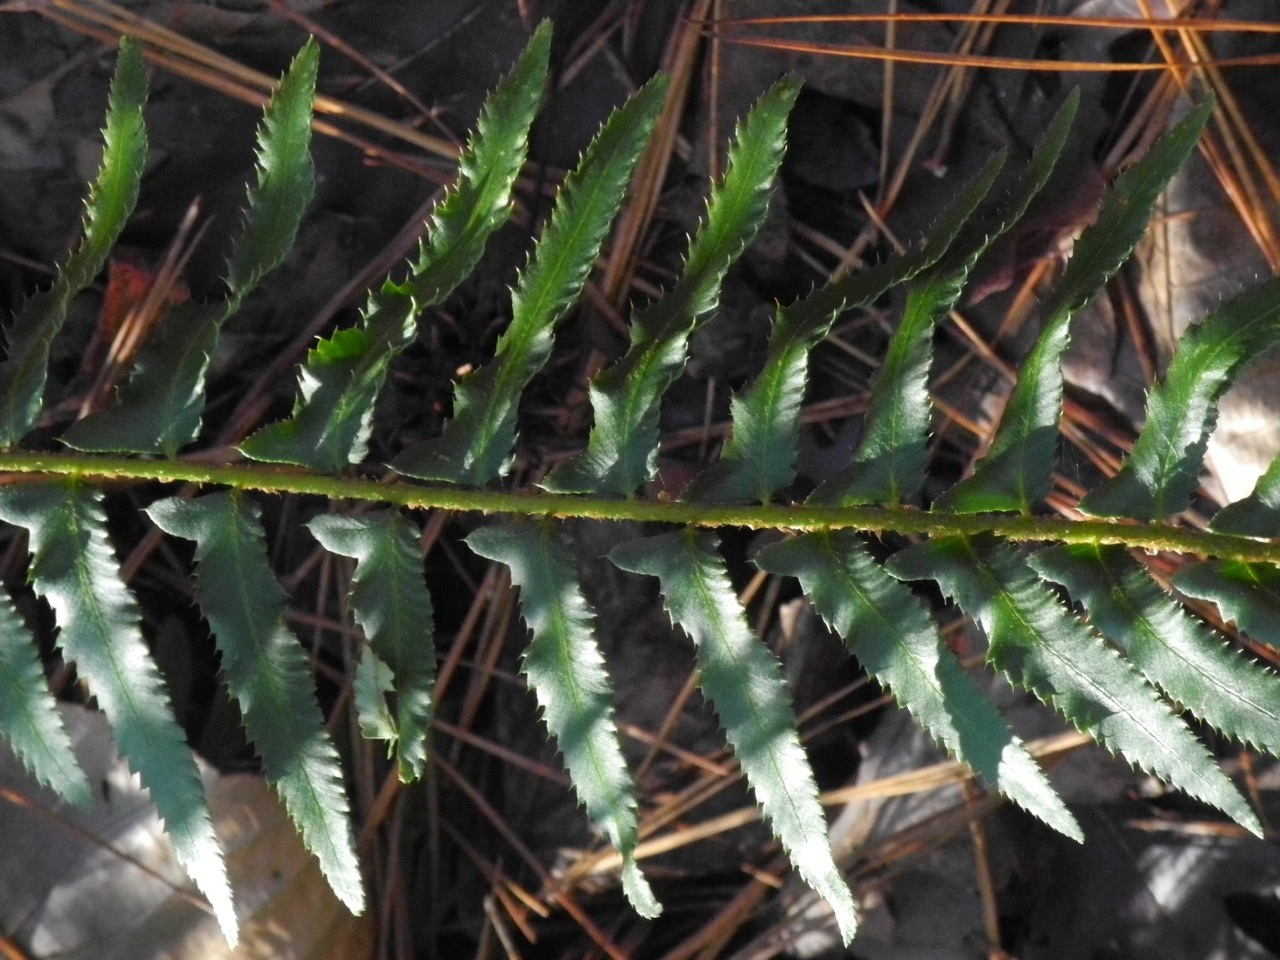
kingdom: Plantae
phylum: Tracheophyta
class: Polypodiopsida
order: Polypodiales
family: Dryopteridaceae
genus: Polystichum
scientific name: Polystichum acrostichoides
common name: Christmas fern
